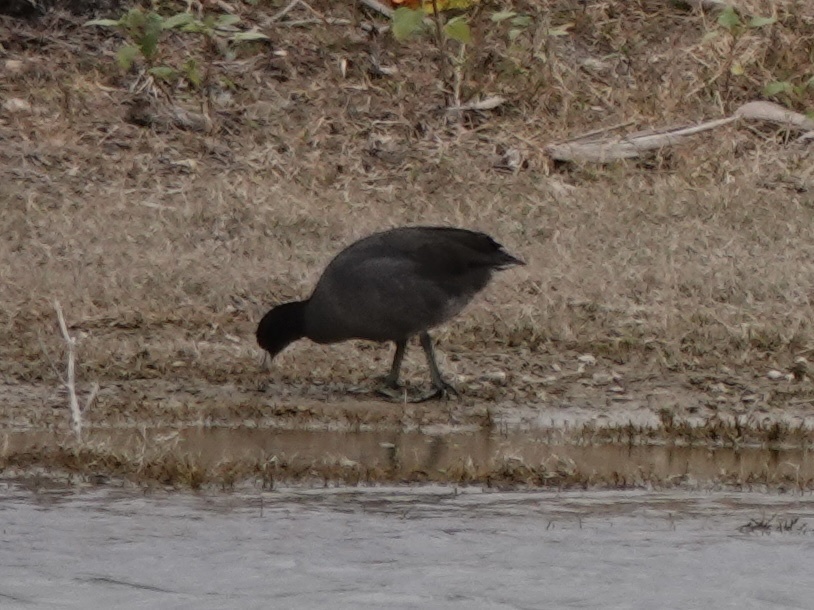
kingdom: Animalia
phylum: Chordata
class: Aves
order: Gruiformes
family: Rallidae
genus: Fulica
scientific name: Fulica americana
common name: American coot
